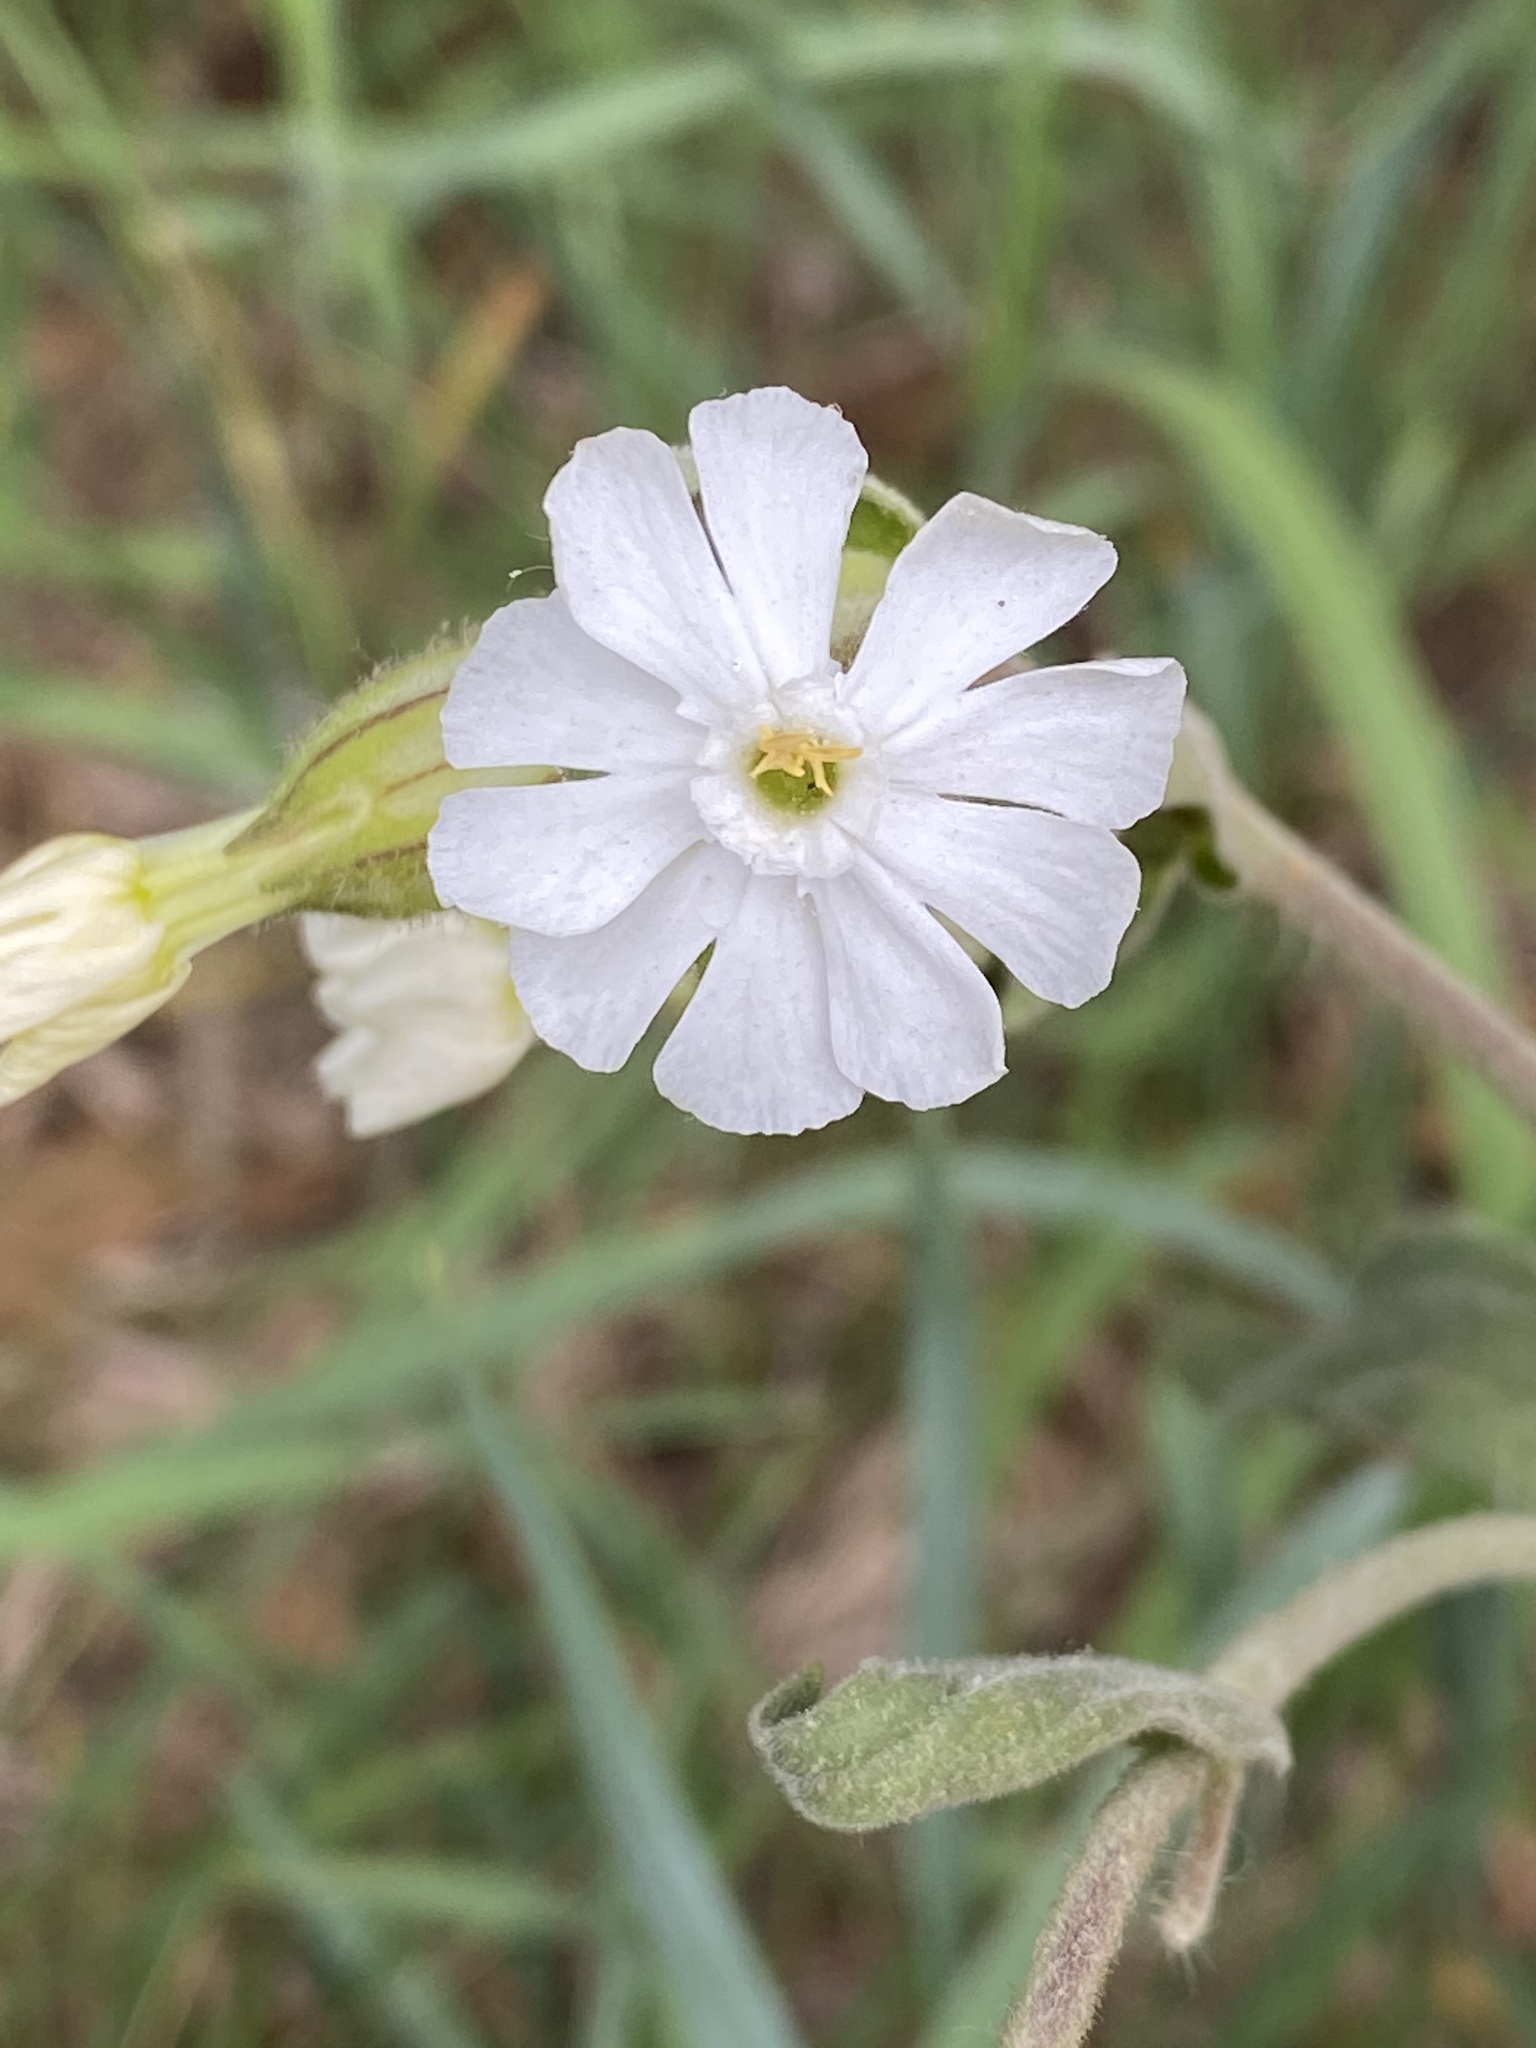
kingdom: Plantae
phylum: Tracheophyta
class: Magnoliopsida
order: Caryophyllales
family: Caryophyllaceae
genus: Silene
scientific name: Silene latifolia
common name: White campion
